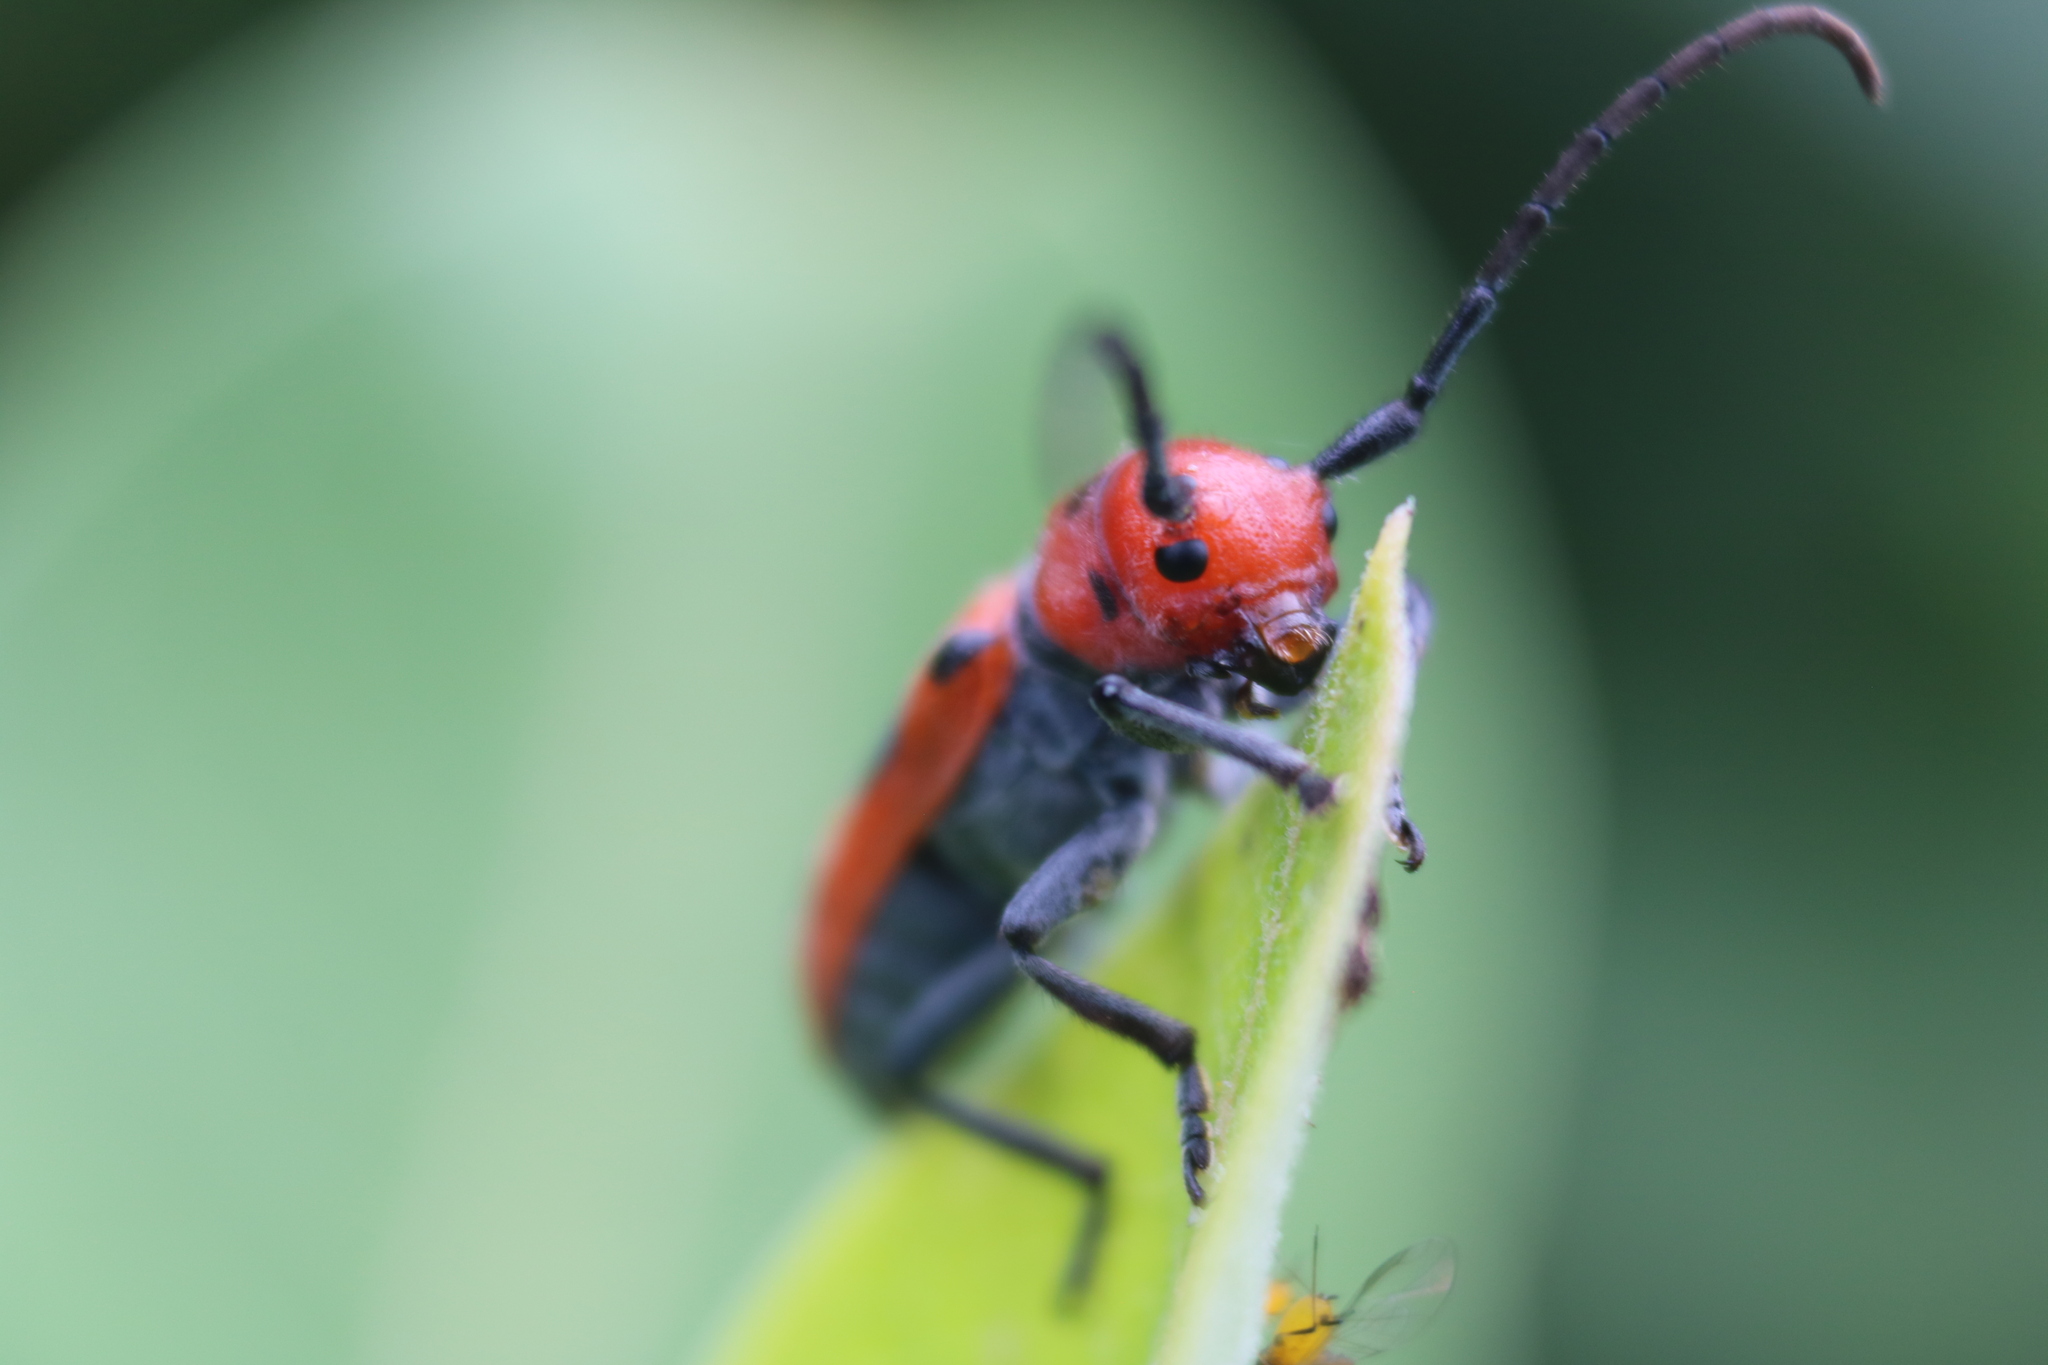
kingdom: Animalia
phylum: Arthropoda
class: Insecta
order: Coleoptera
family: Cerambycidae
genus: Tetraopes
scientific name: Tetraopes tetrophthalmus
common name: Red milkweed beetle
